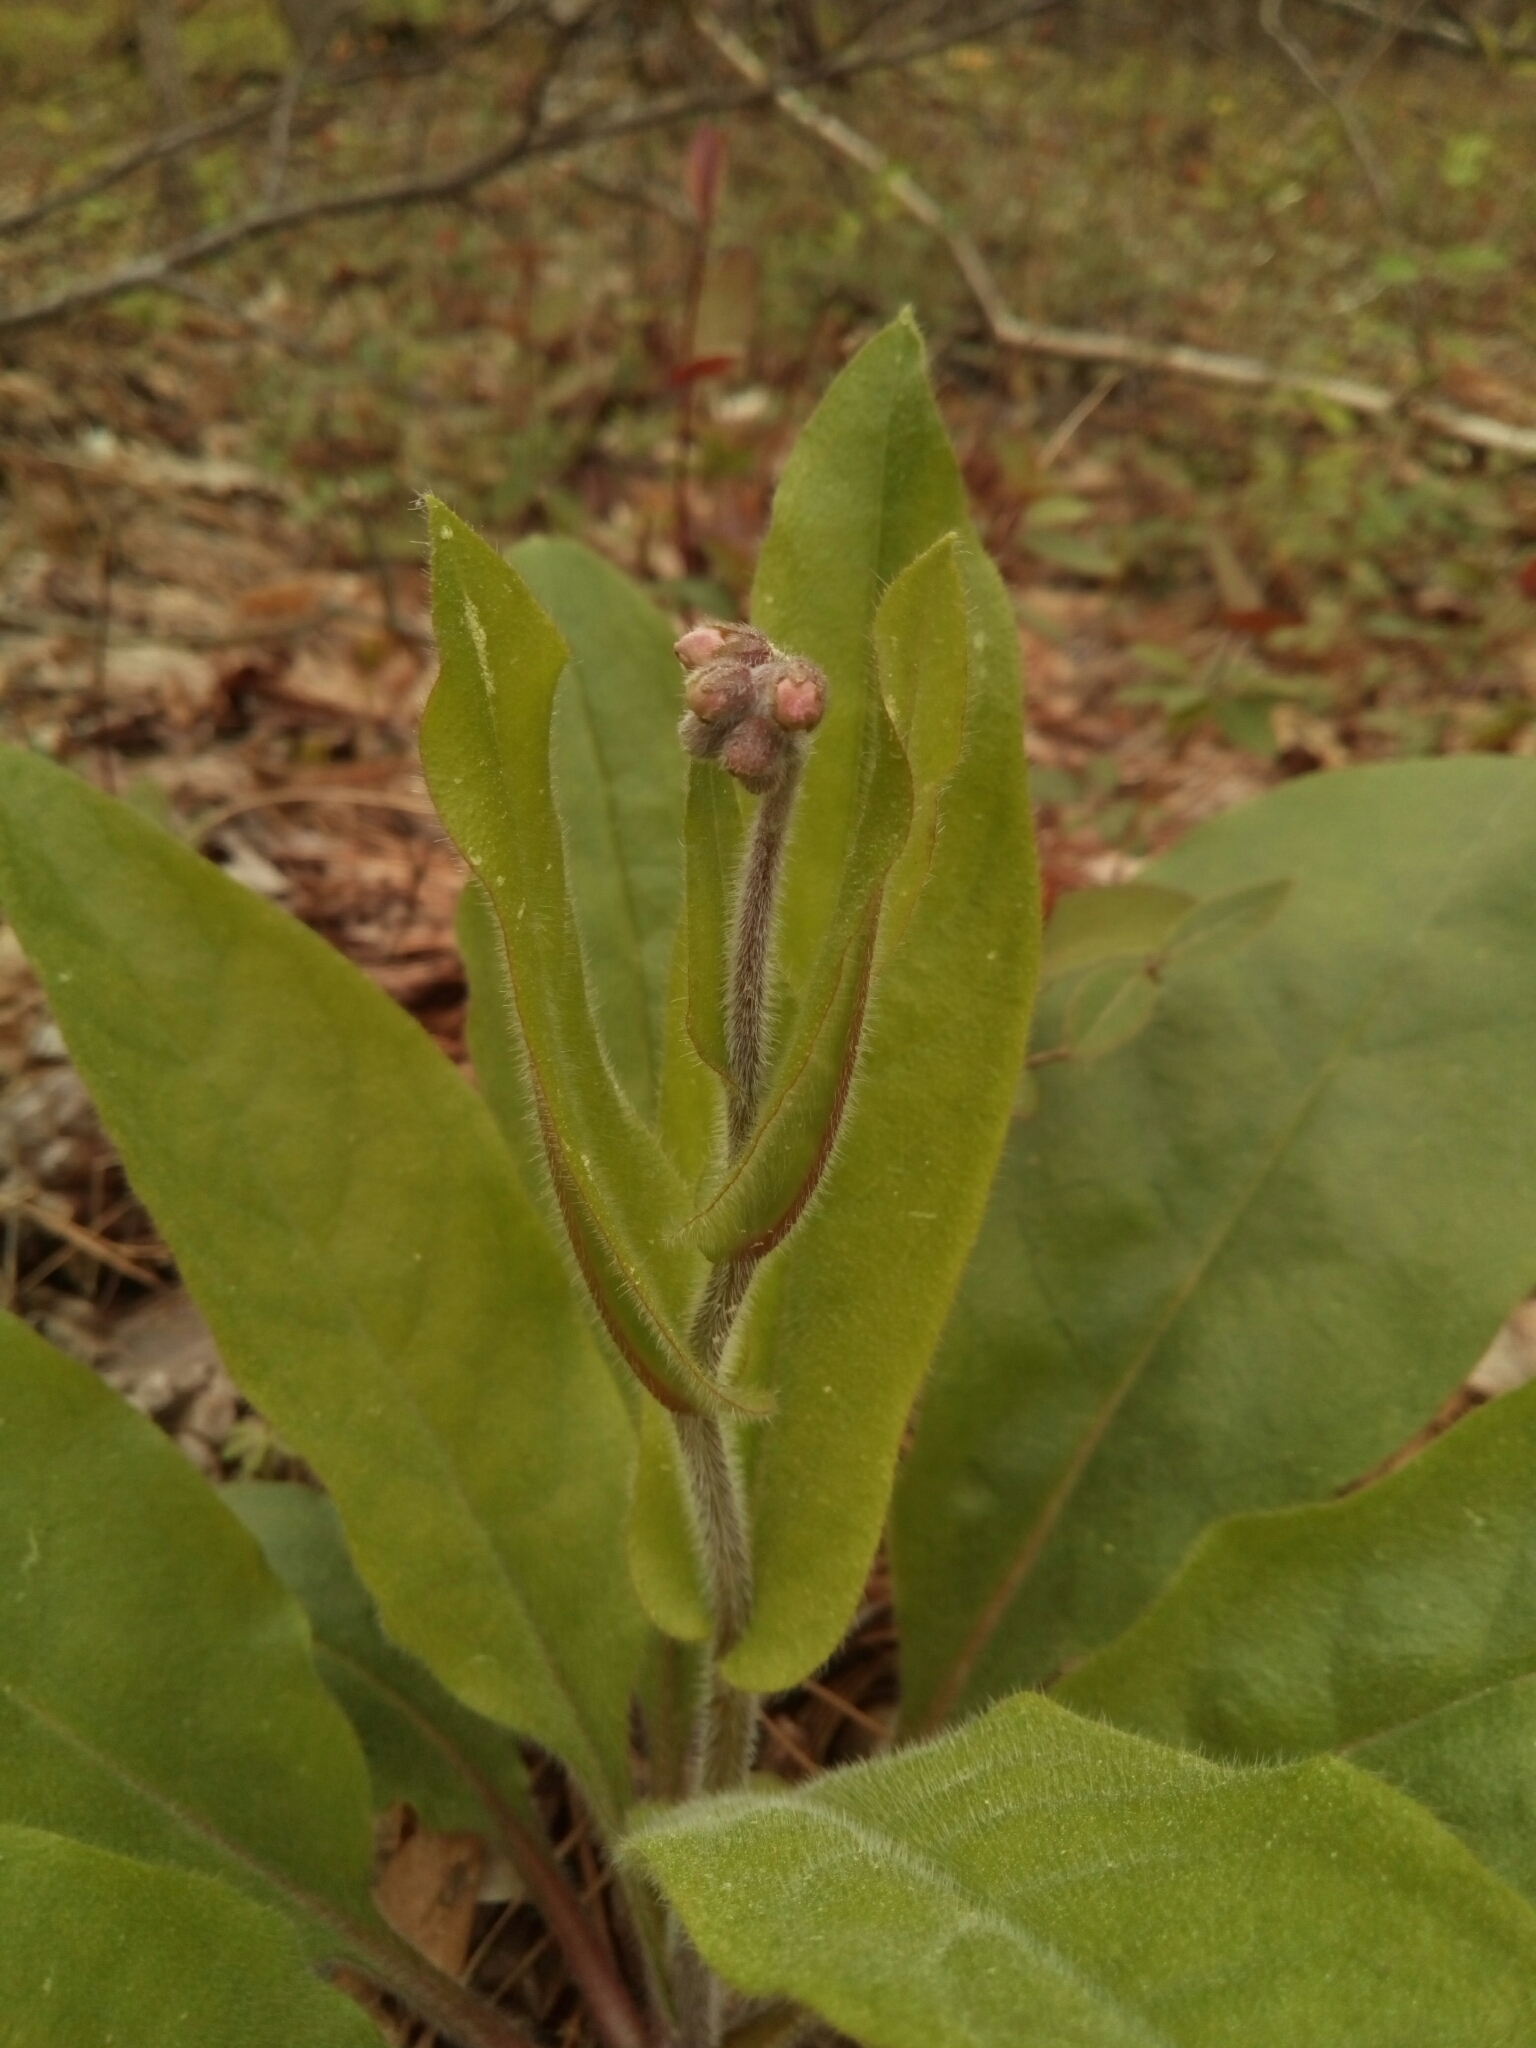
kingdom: Plantae
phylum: Tracheophyta
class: Magnoliopsida
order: Boraginales
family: Boraginaceae
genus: Andersonglossum
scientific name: Andersonglossum virginianum
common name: Wild comfrey
